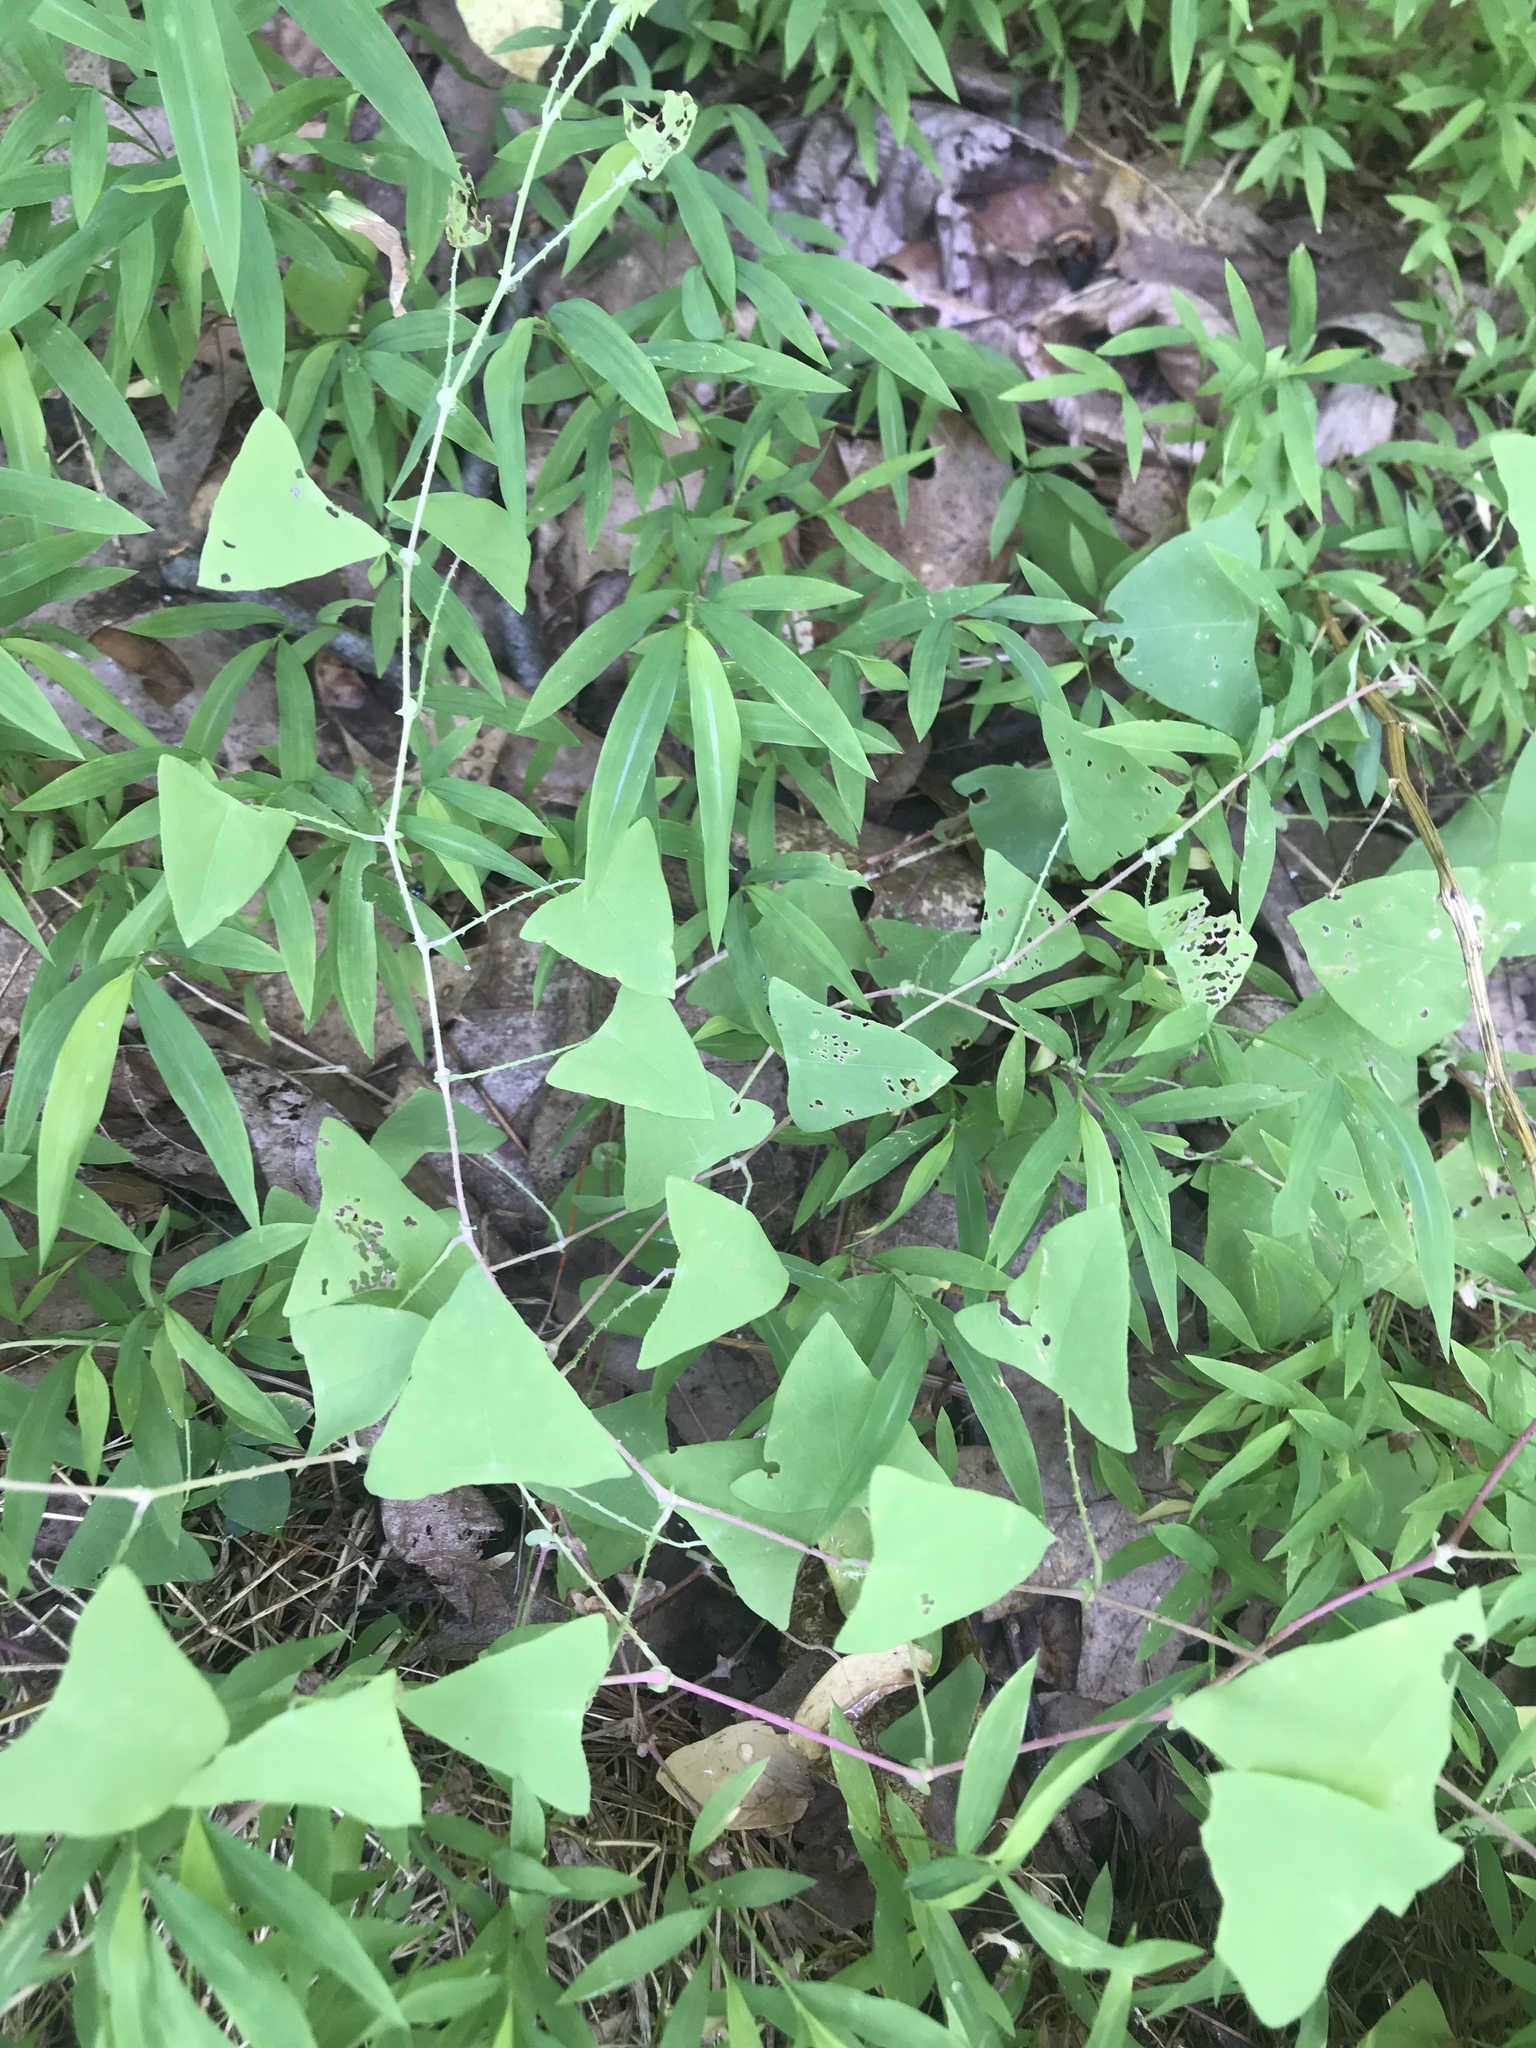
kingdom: Plantae
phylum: Tracheophyta
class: Magnoliopsida
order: Caryophyllales
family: Polygonaceae
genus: Persicaria
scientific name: Persicaria perfoliata
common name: Asiatic tearthumb
